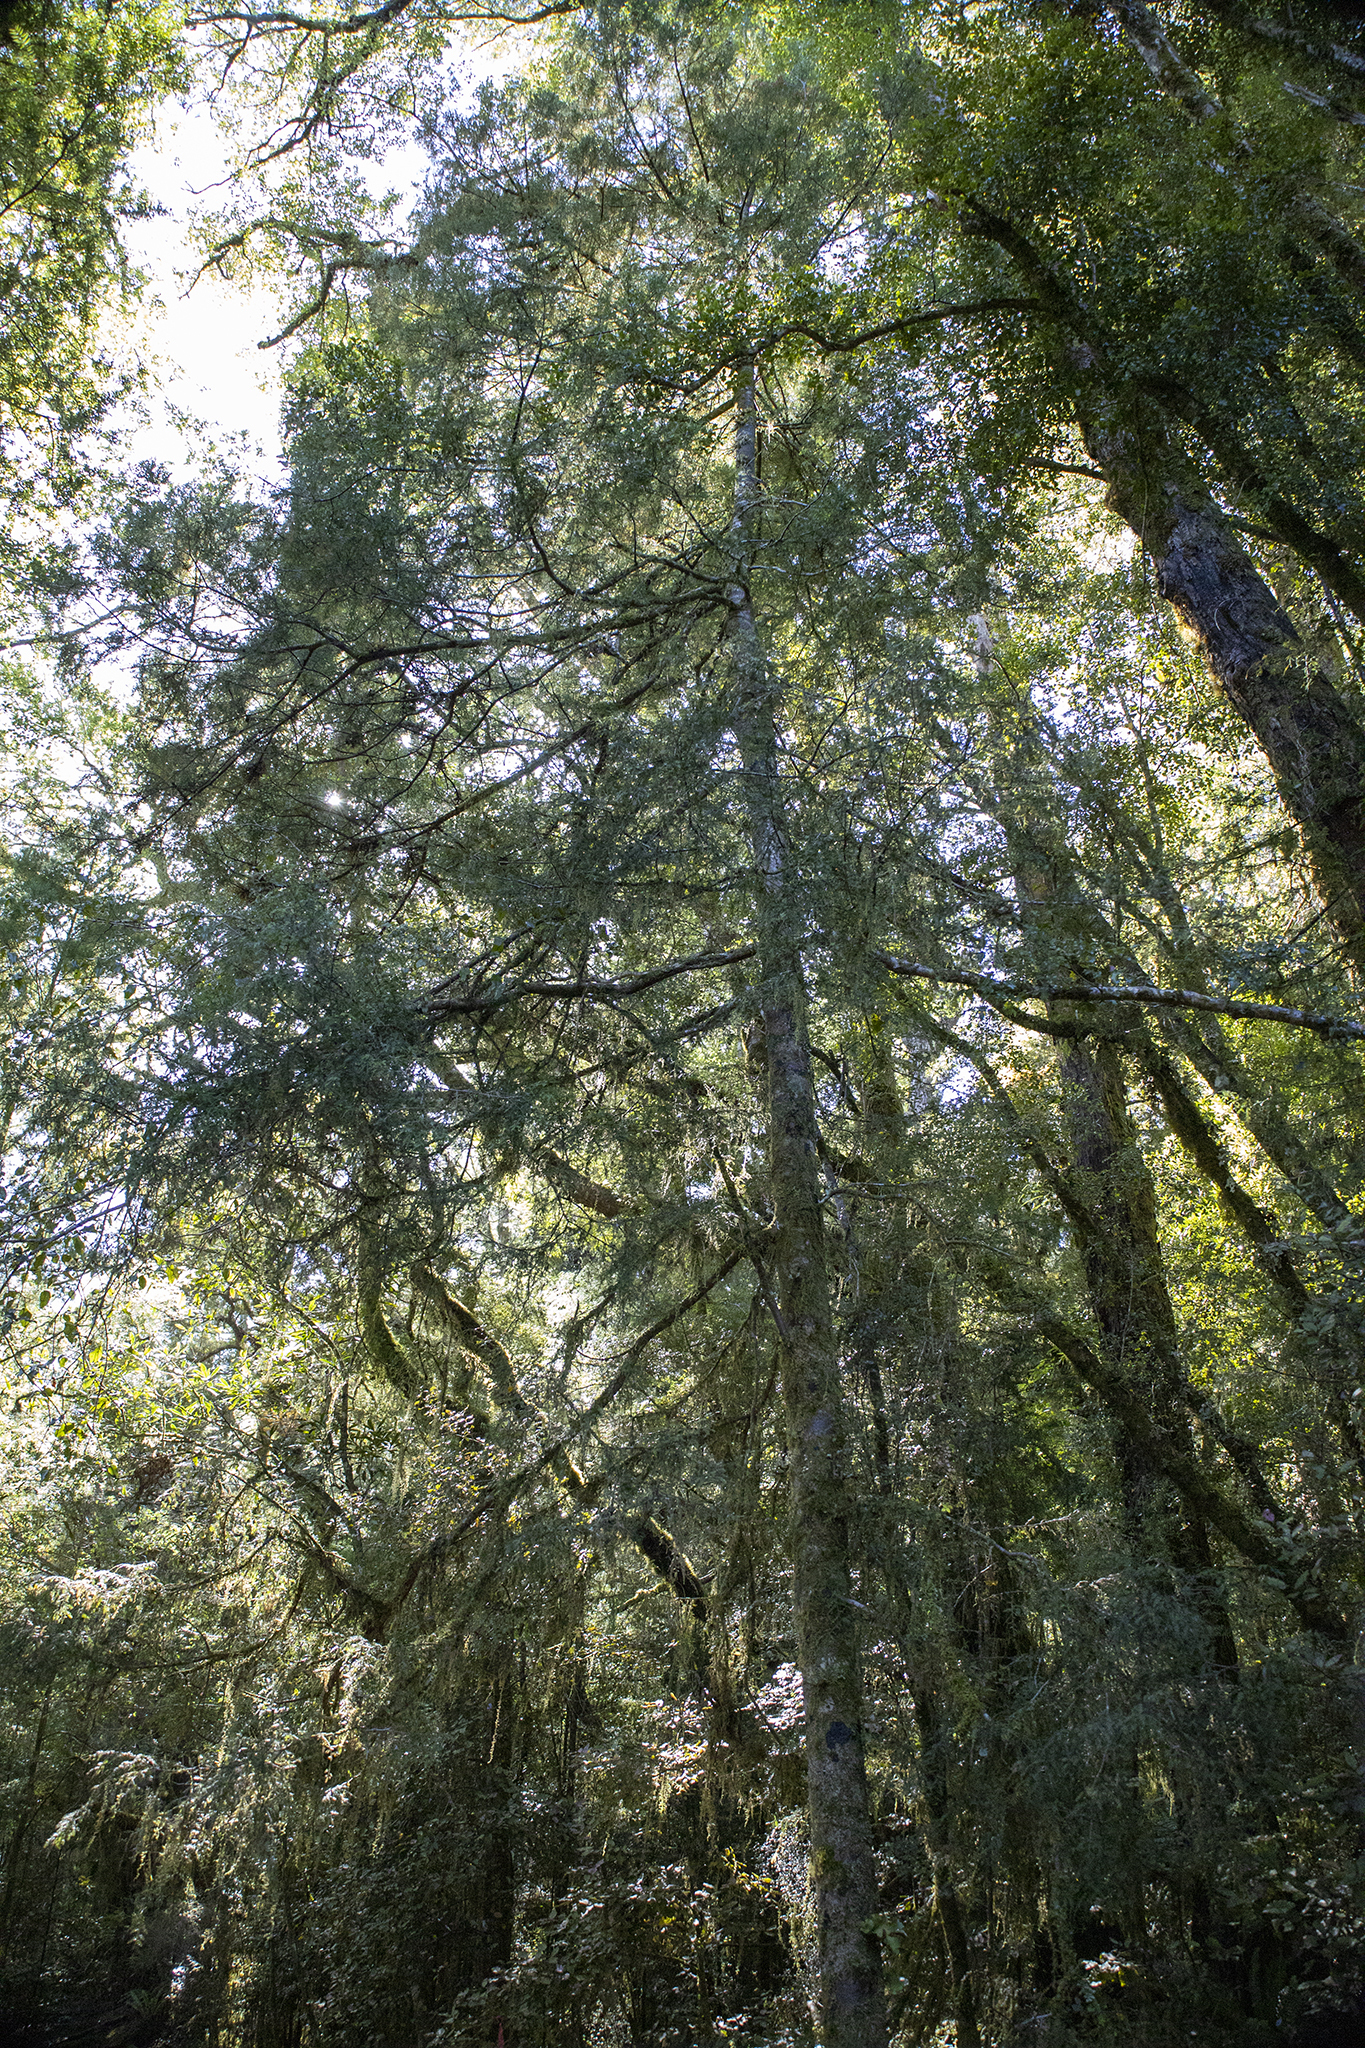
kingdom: Plantae
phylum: Tracheophyta
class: Pinopsida
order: Pinales
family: Podocarpaceae
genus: Dacrycarpus
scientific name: Dacrycarpus dacrydioides
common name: White pine
